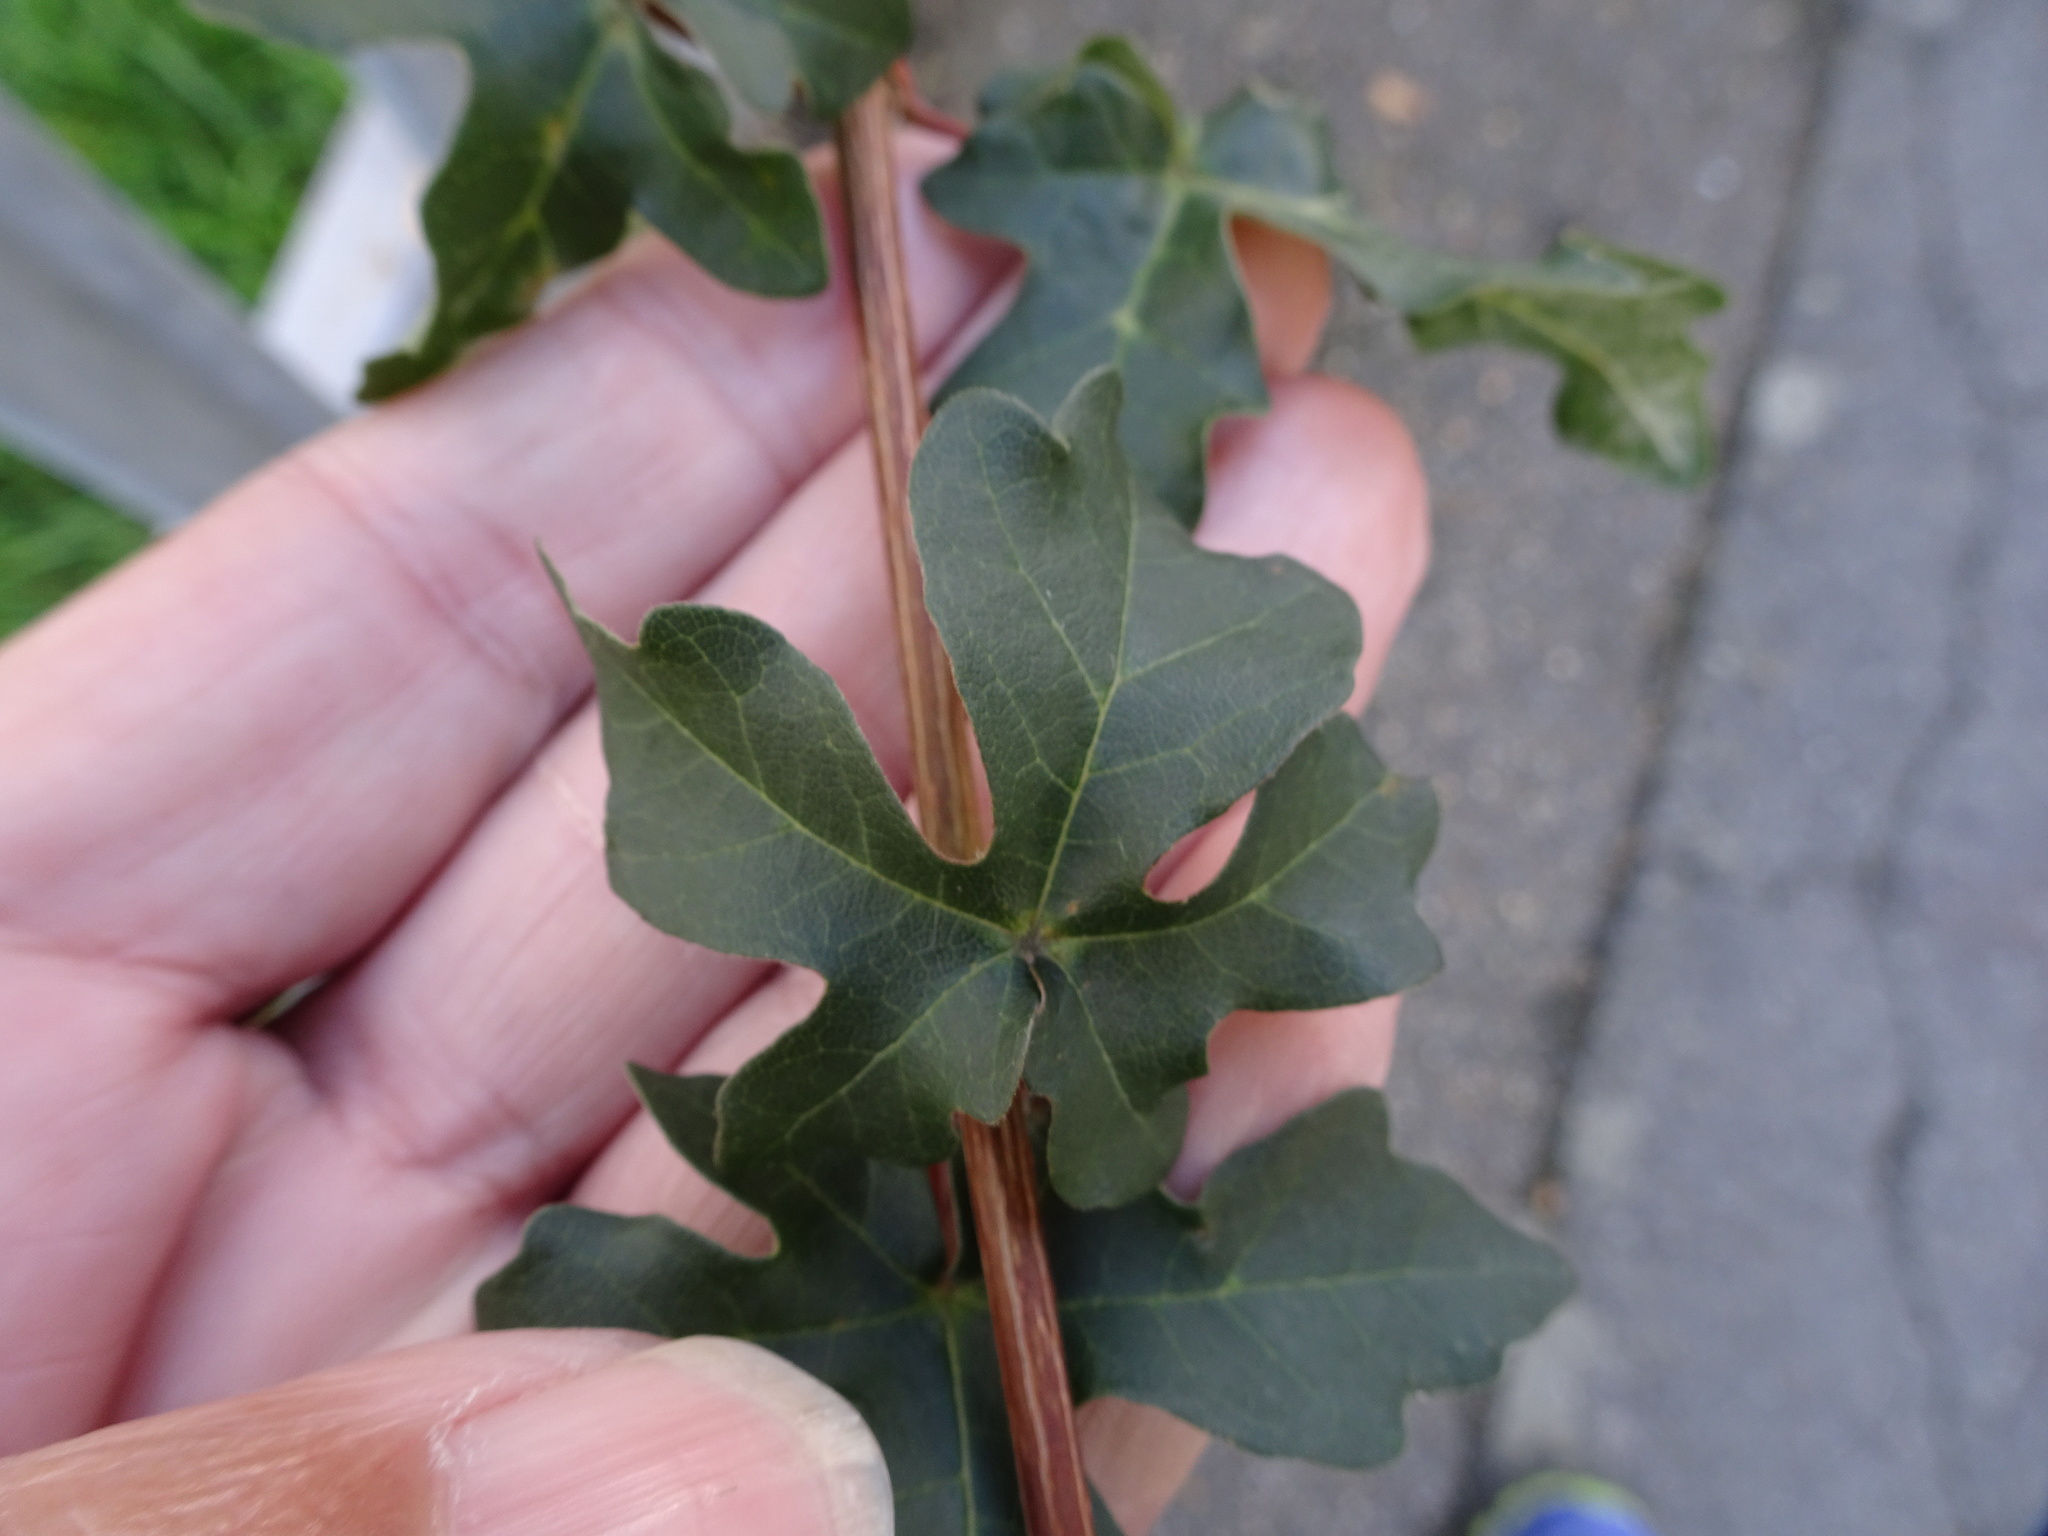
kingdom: Plantae
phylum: Tracheophyta
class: Magnoliopsida
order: Sapindales
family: Sapindaceae
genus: Acer
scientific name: Acer campestre
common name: Field maple
